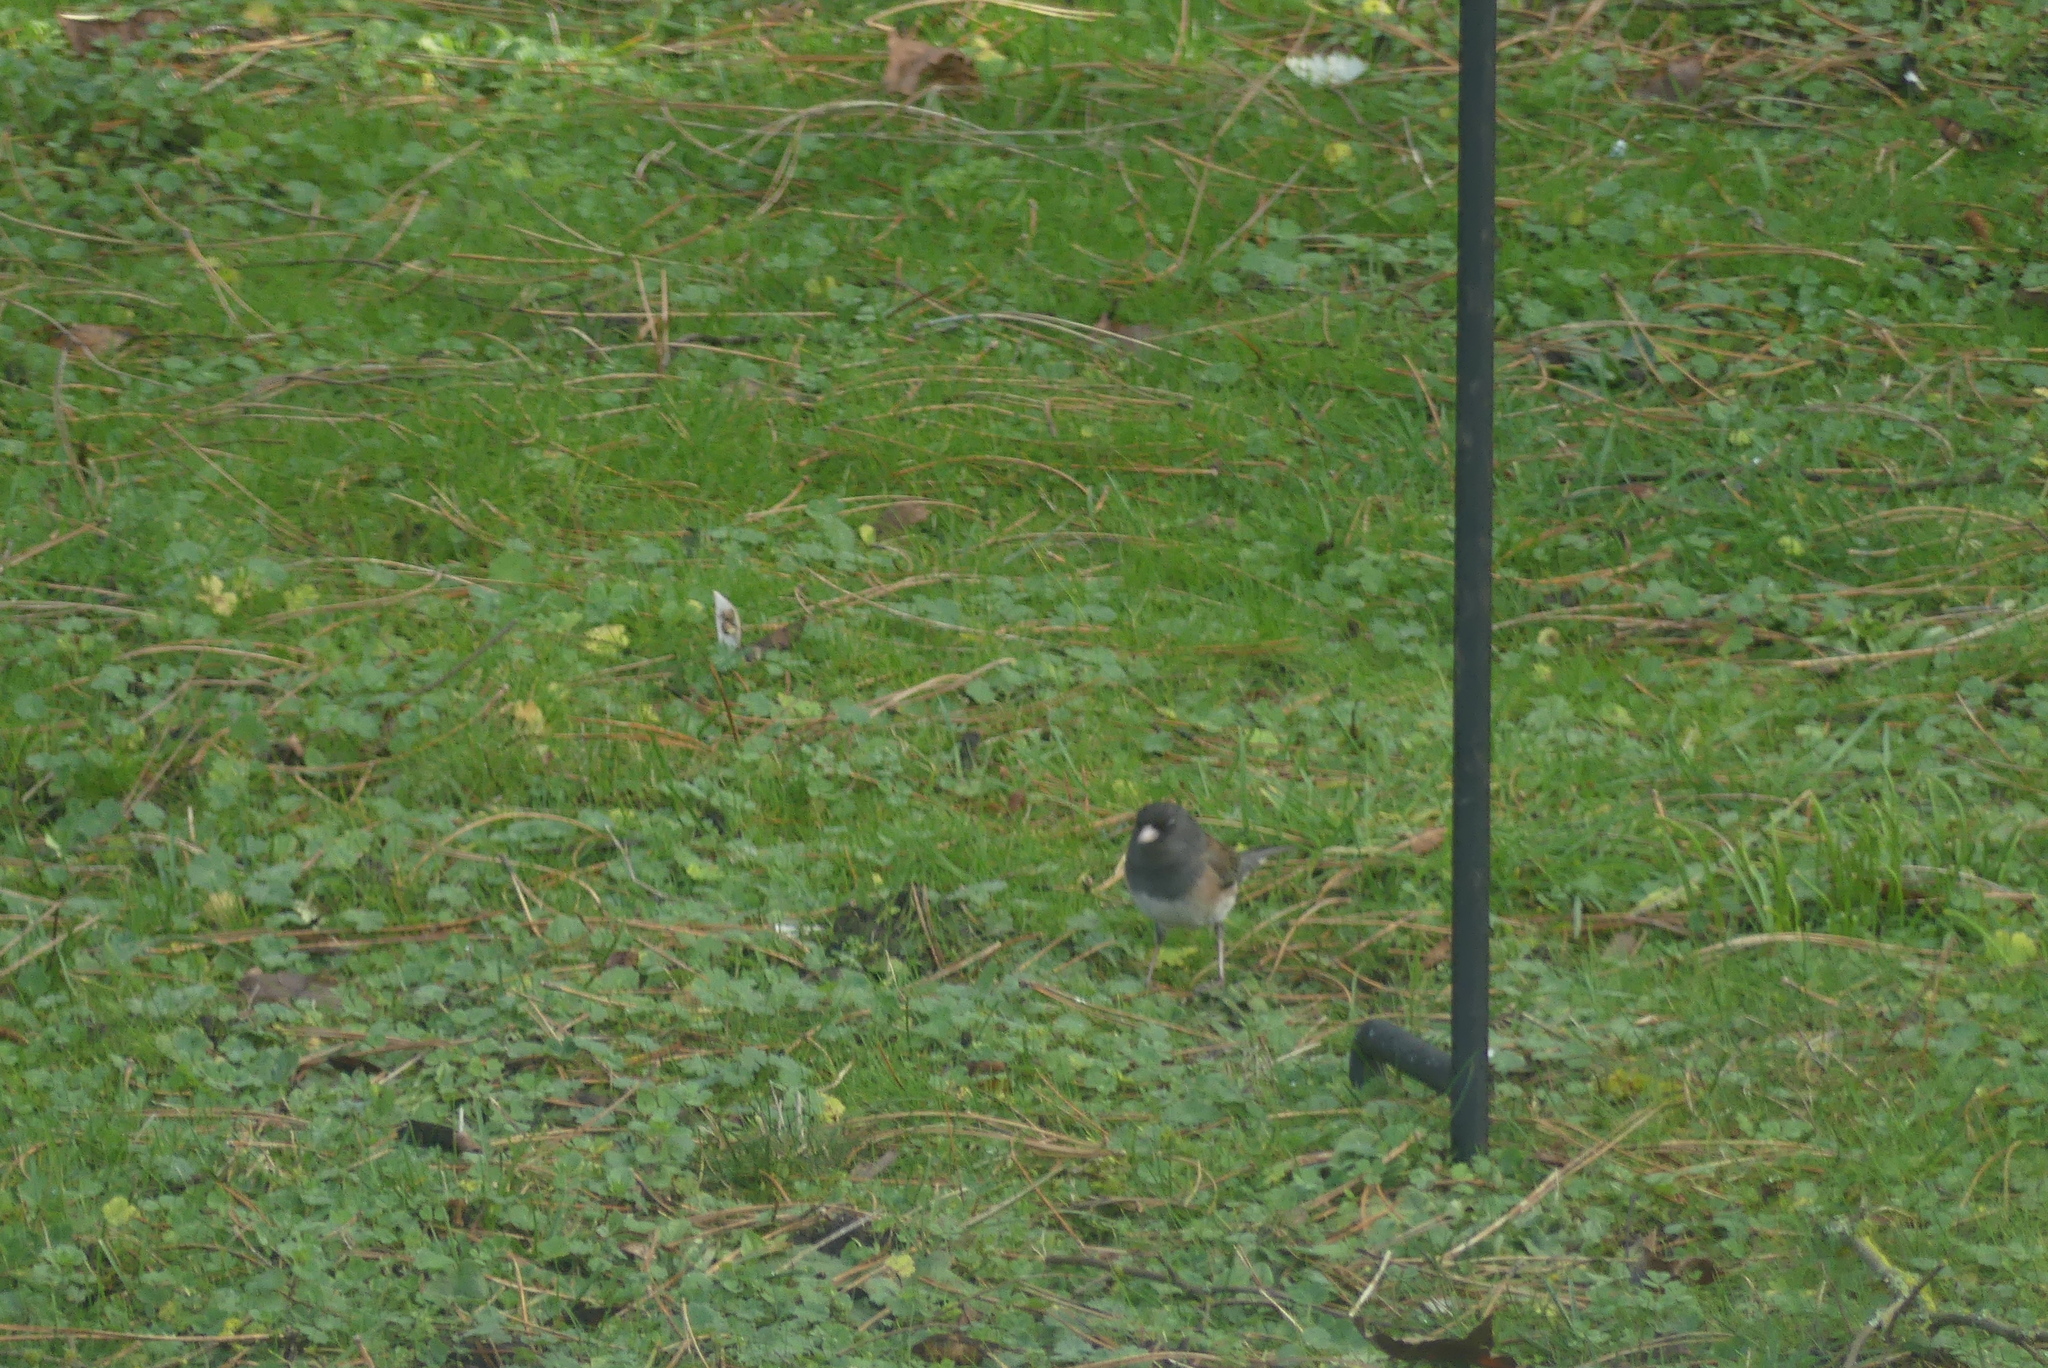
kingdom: Animalia
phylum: Chordata
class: Aves
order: Passeriformes
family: Passerellidae
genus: Junco
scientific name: Junco hyemalis
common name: Dark-eyed junco
